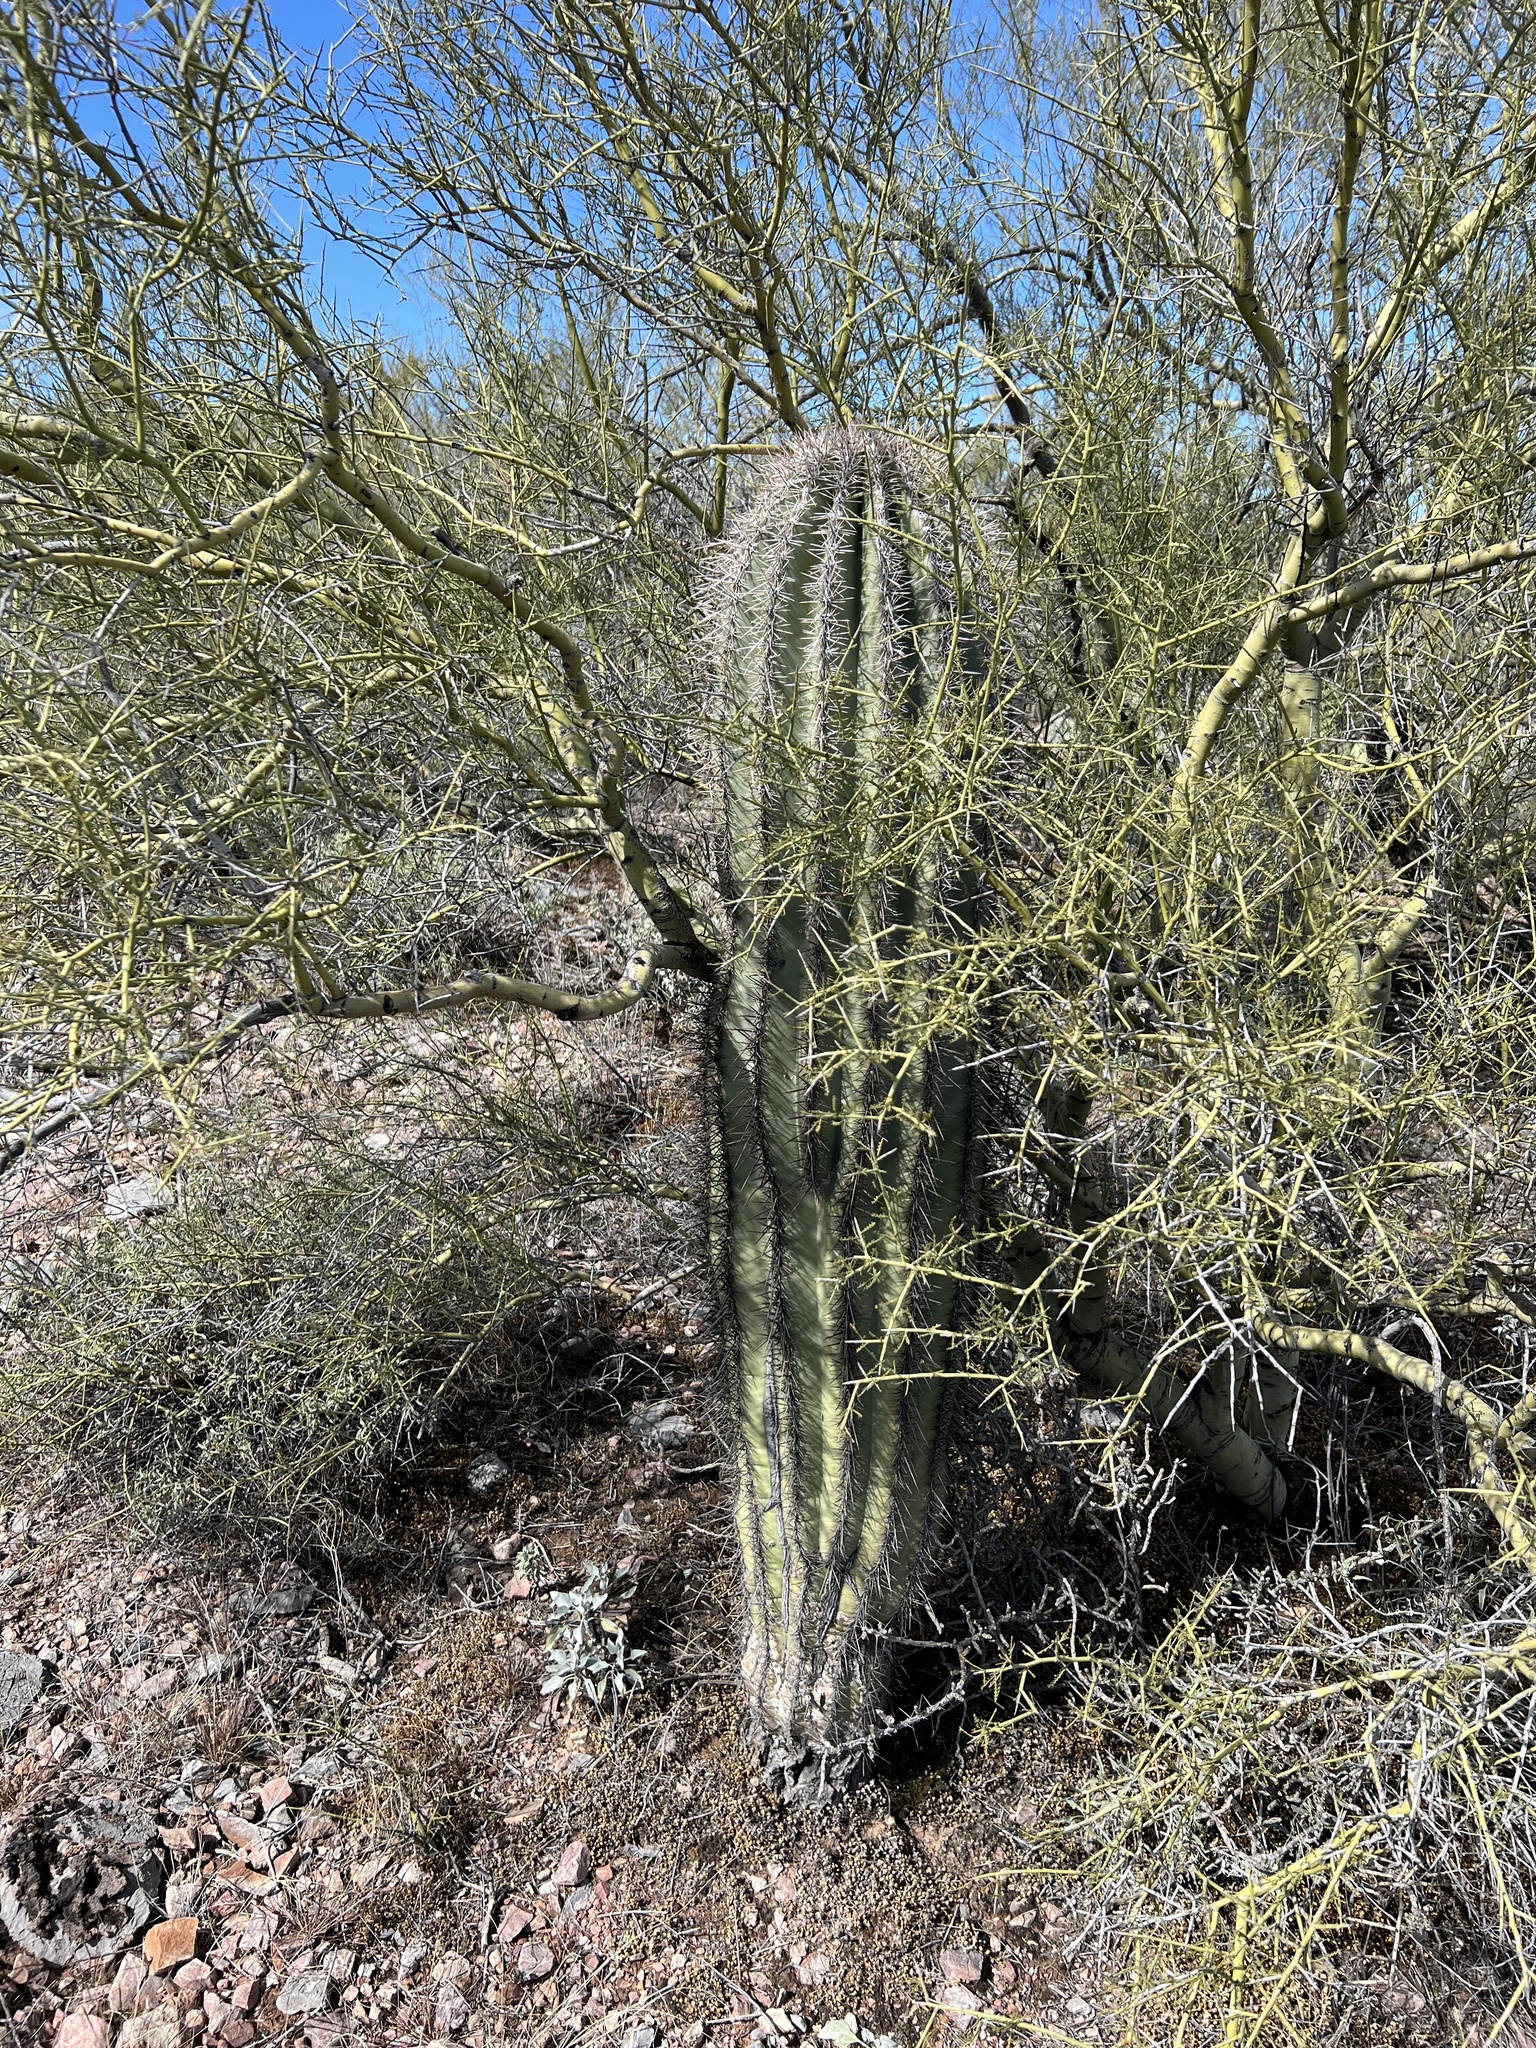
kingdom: Plantae
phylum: Tracheophyta
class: Magnoliopsida
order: Caryophyllales
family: Cactaceae
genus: Carnegiea
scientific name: Carnegiea gigantea
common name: Saguaro
